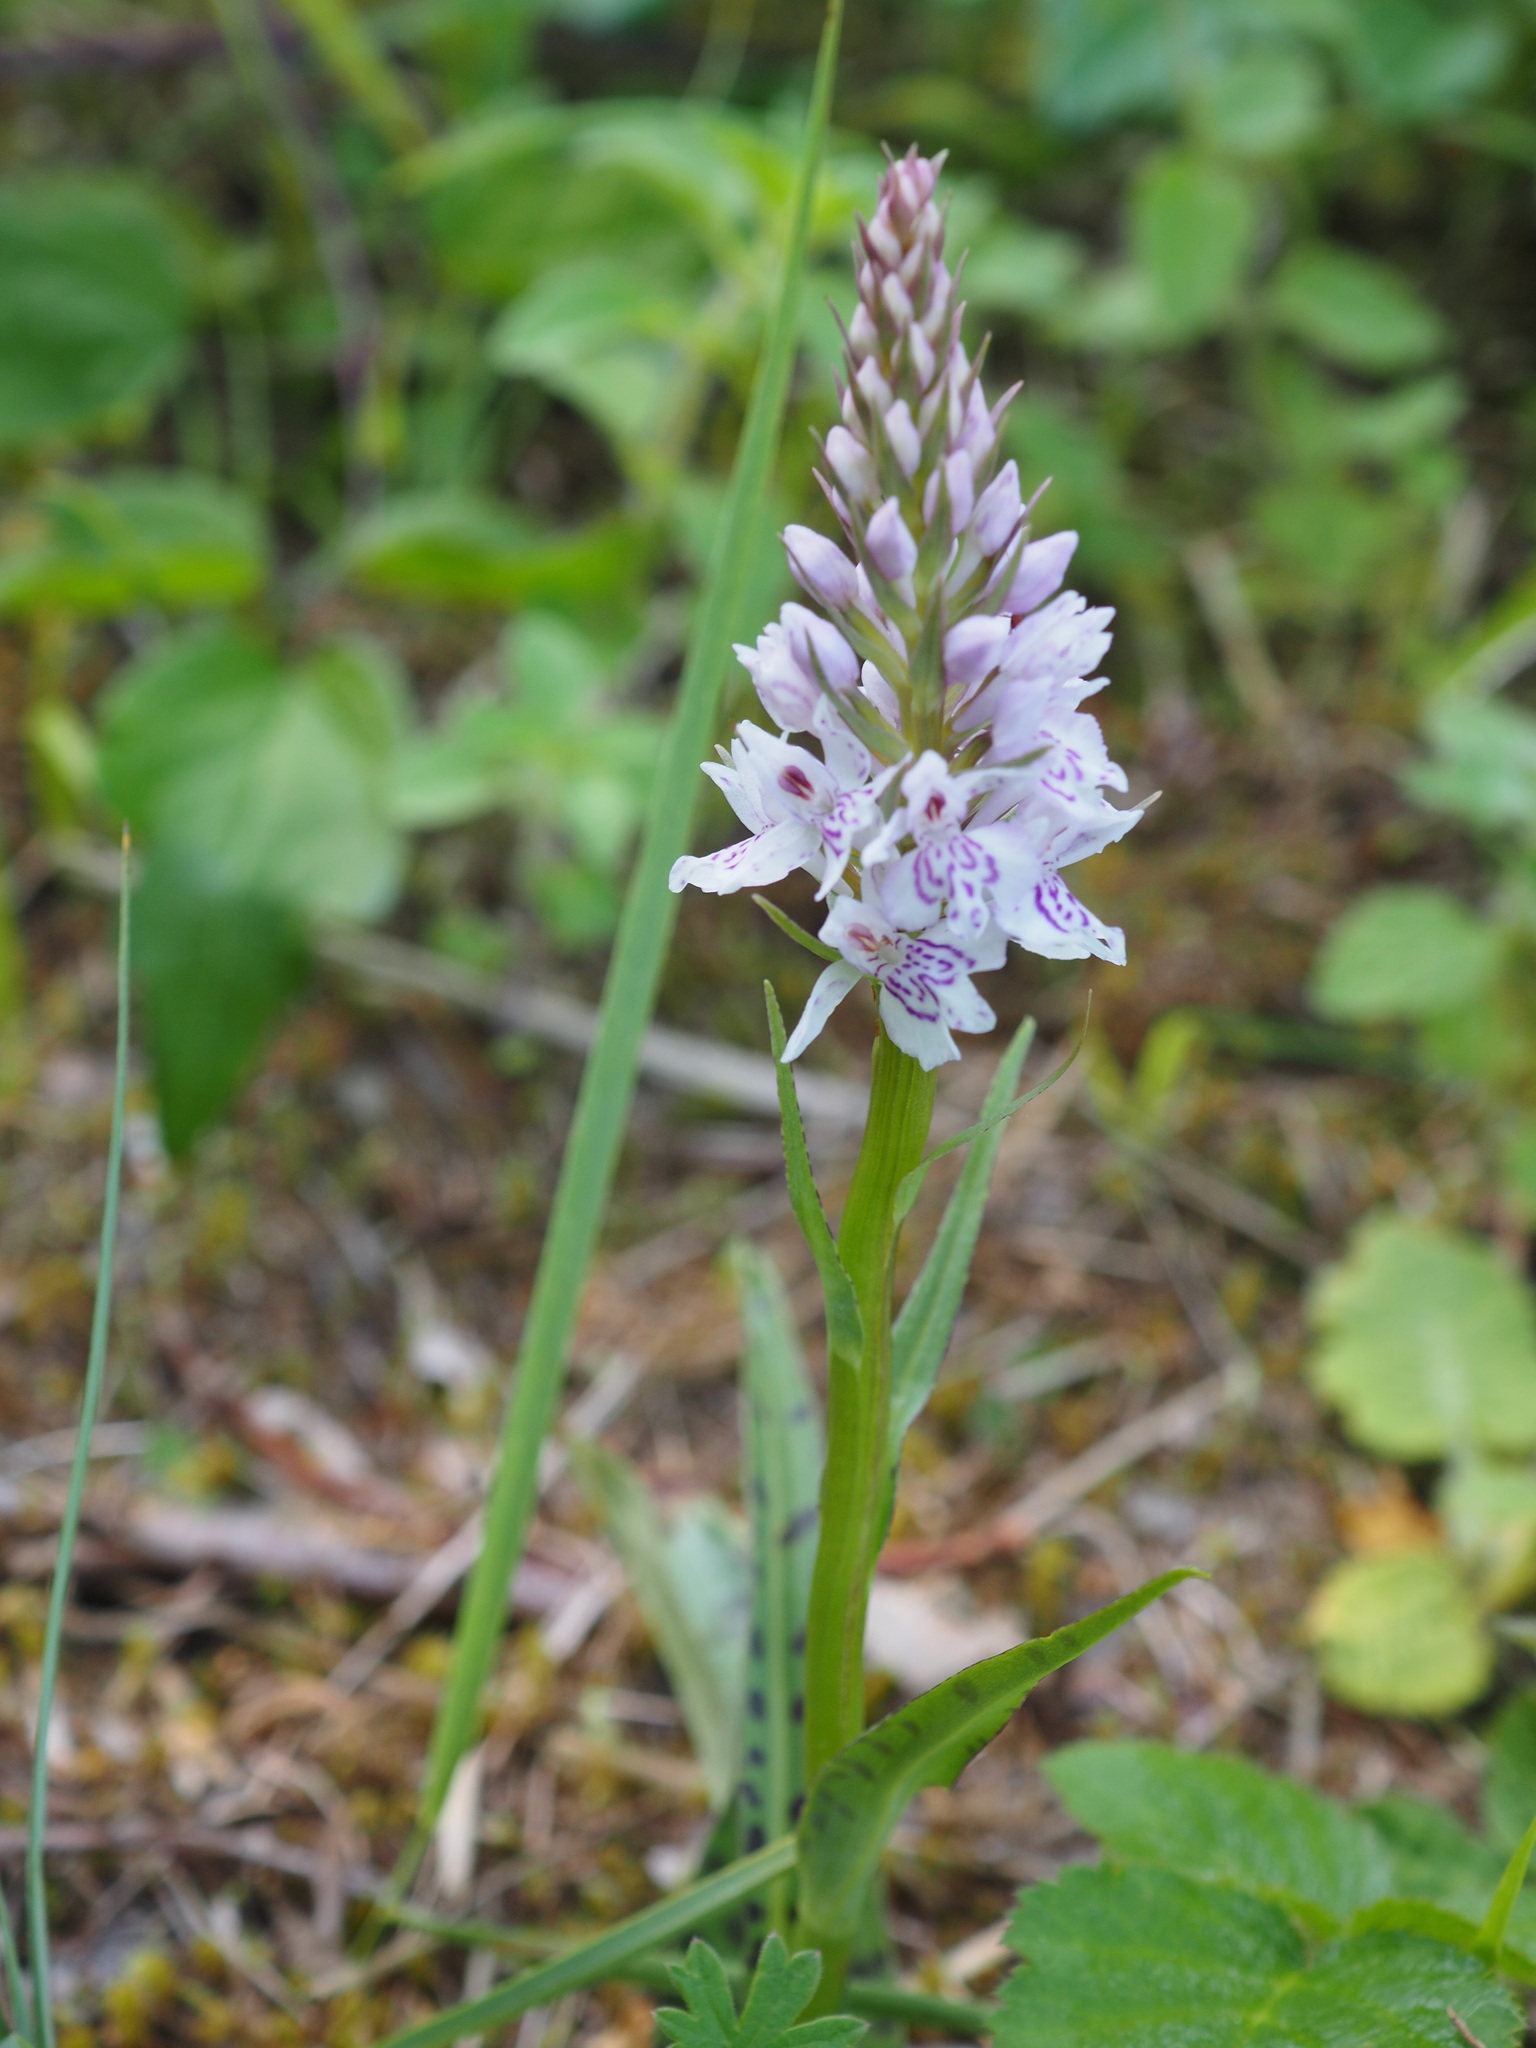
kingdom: Plantae
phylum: Tracheophyta
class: Liliopsida
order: Asparagales
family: Orchidaceae
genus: Dactylorhiza
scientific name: Dactylorhiza maculata
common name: Heath spotted-orchid
